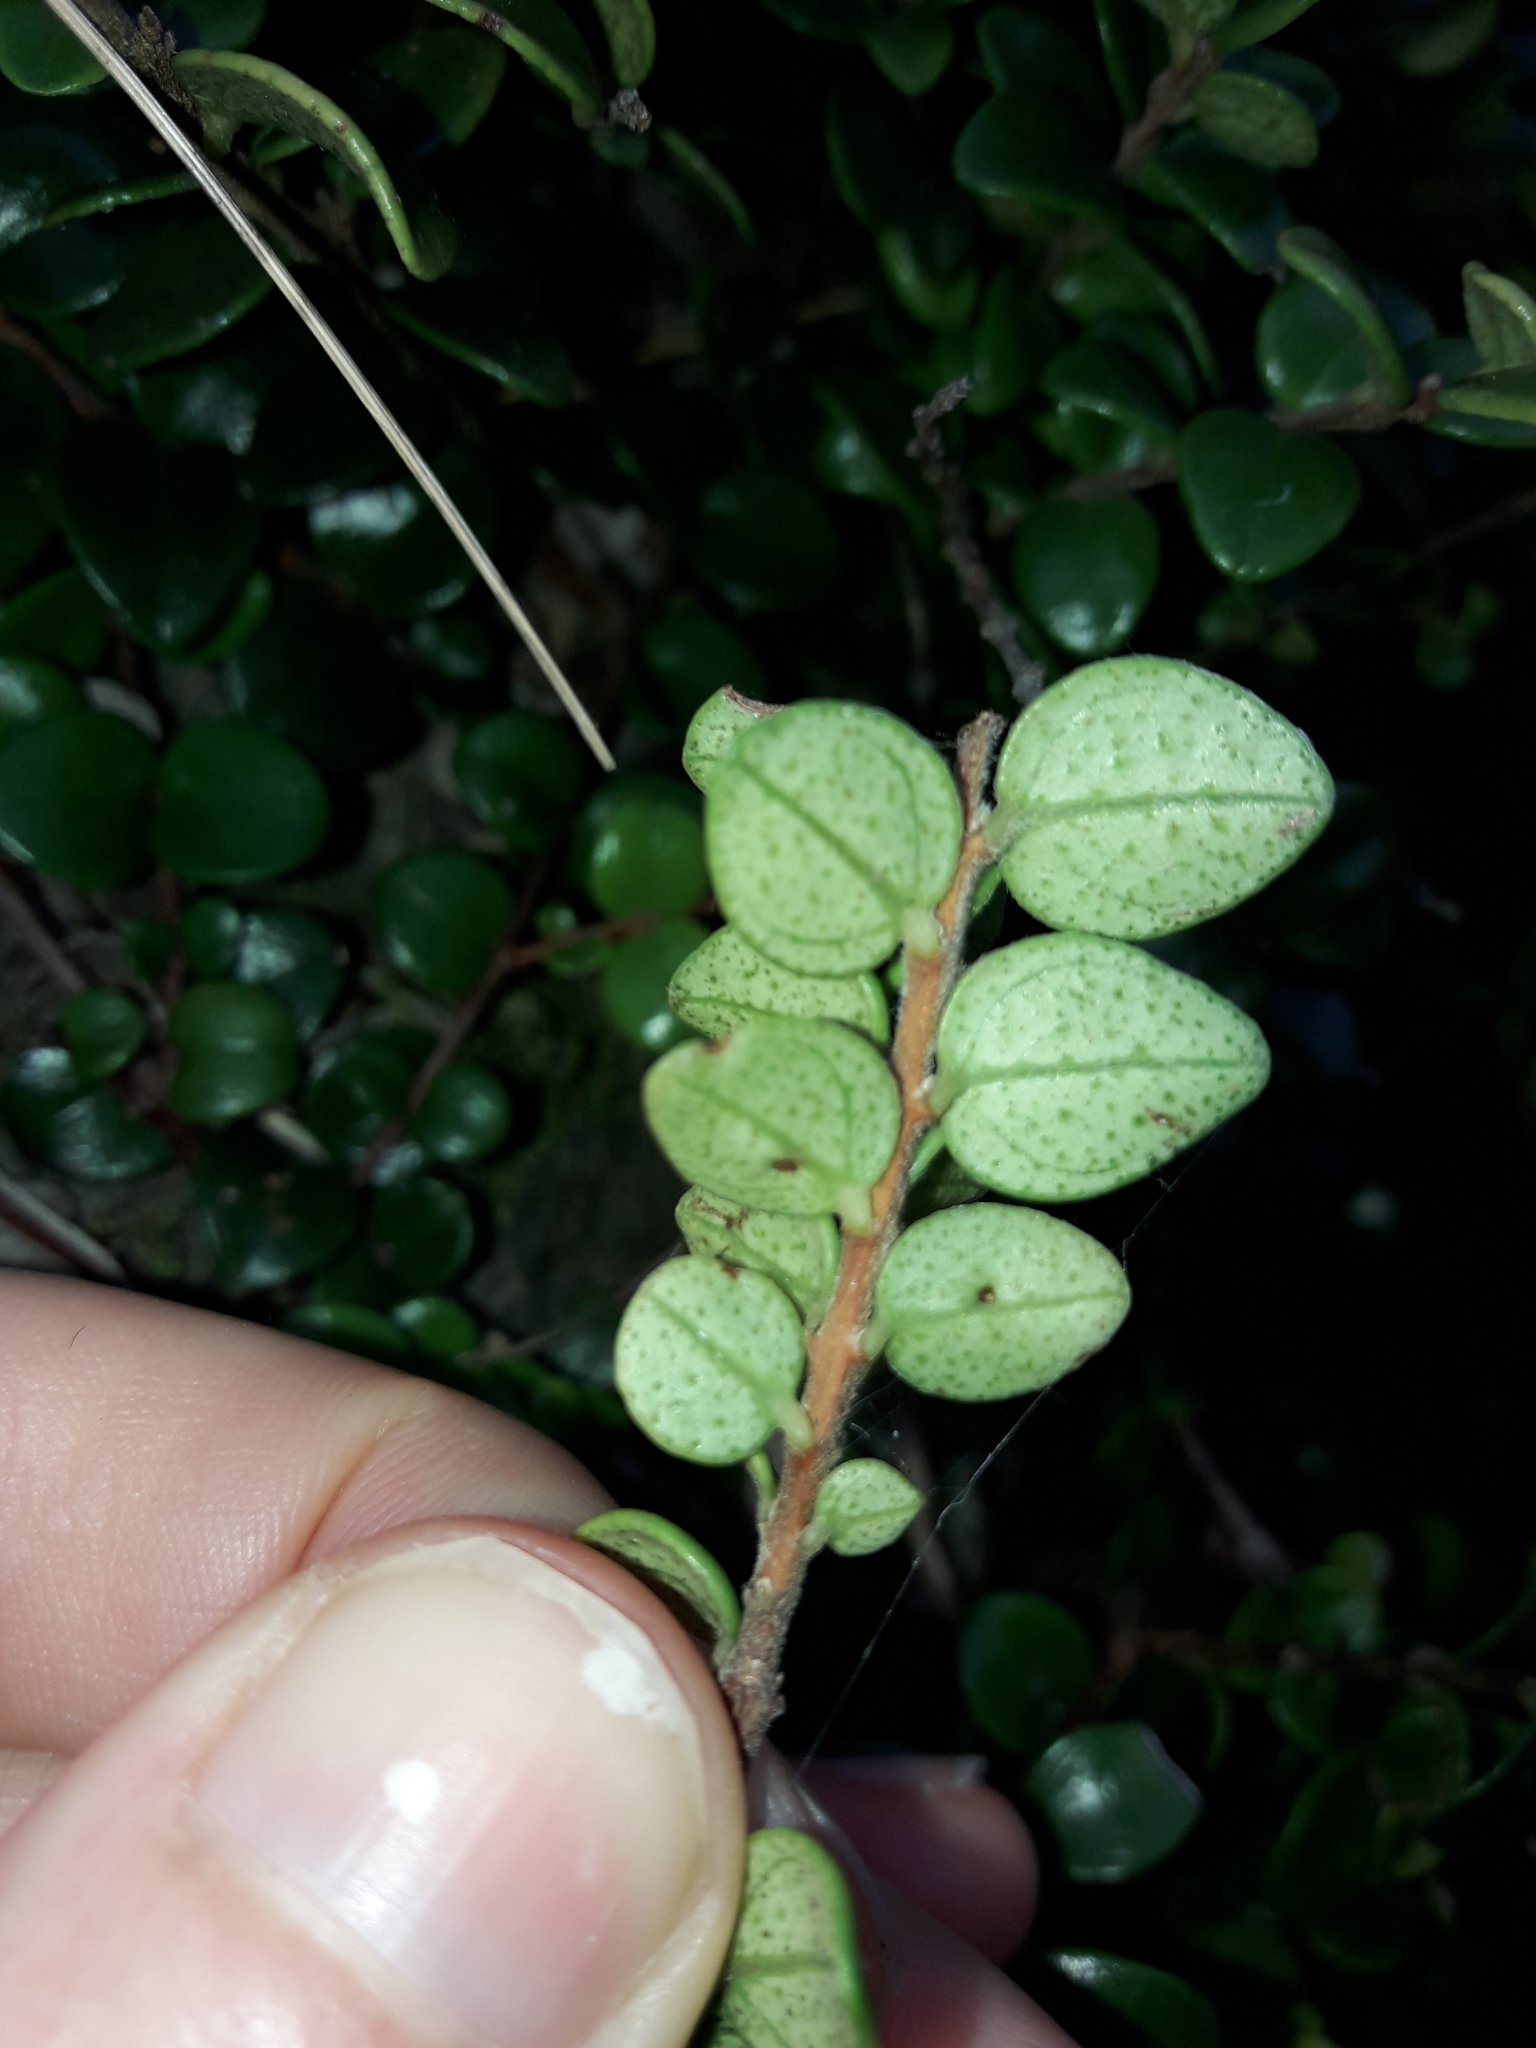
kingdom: Plantae
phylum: Tracheophyta
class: Magnoliopsida
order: Myrtales
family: Myrtaceae
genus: Metrosideros
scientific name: Metrosideros perforata
